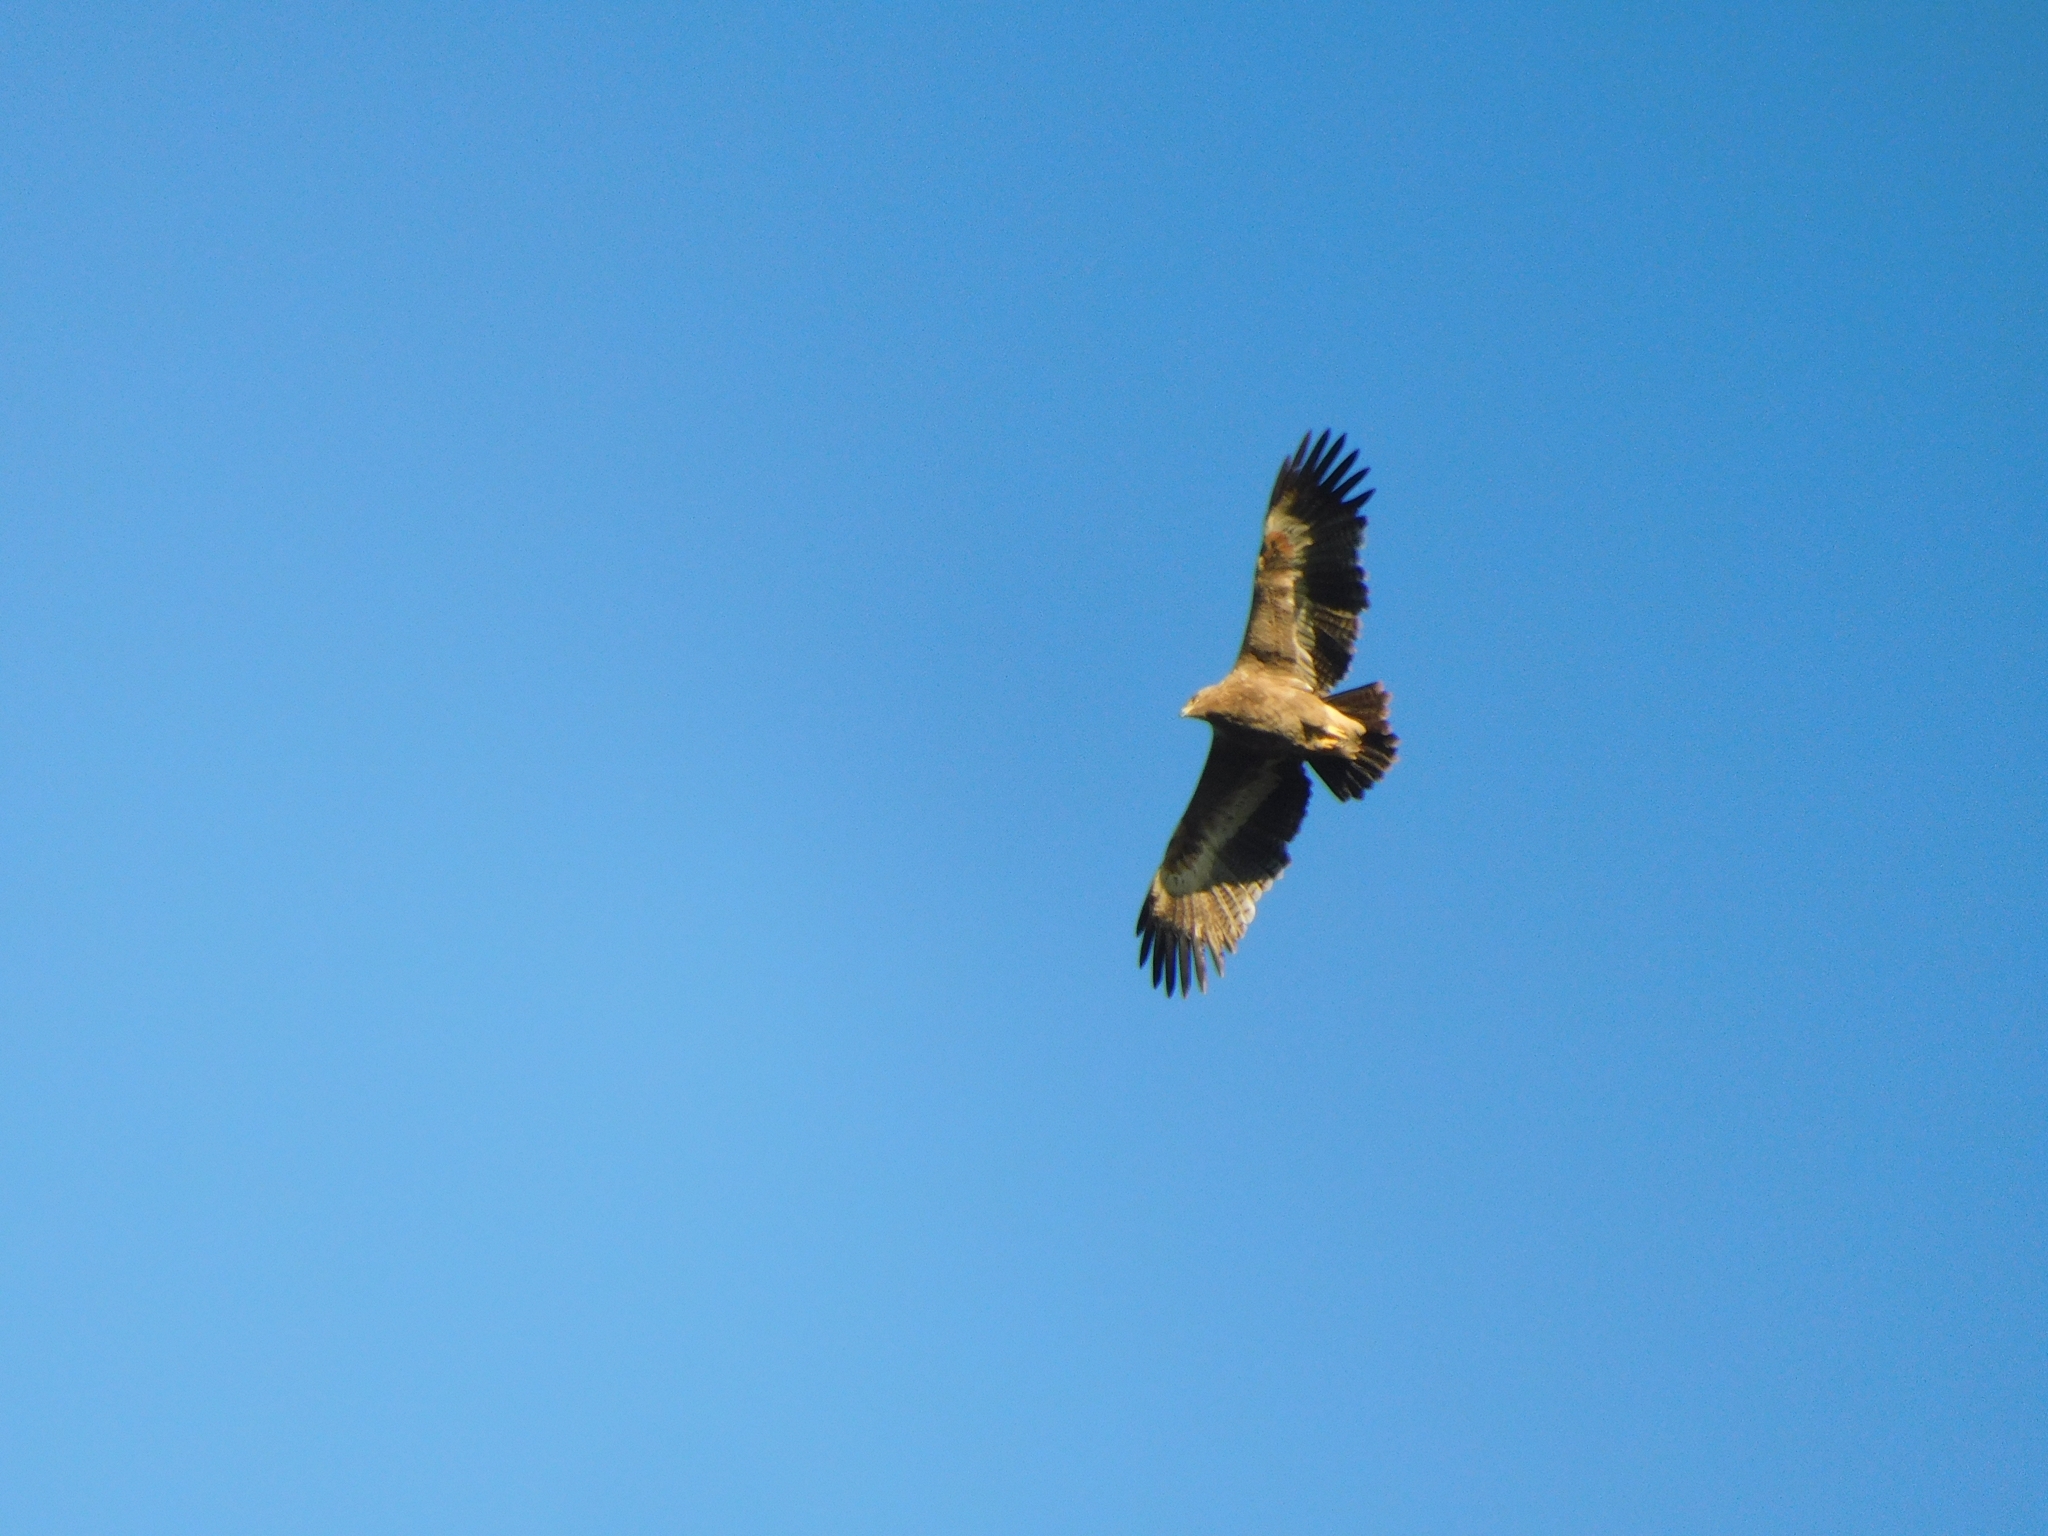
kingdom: Animalia
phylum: Chordata
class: Aves
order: Accipitriformes
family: Accipitridae
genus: Aquila
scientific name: Aquila nipalensis
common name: Steppe eagle
